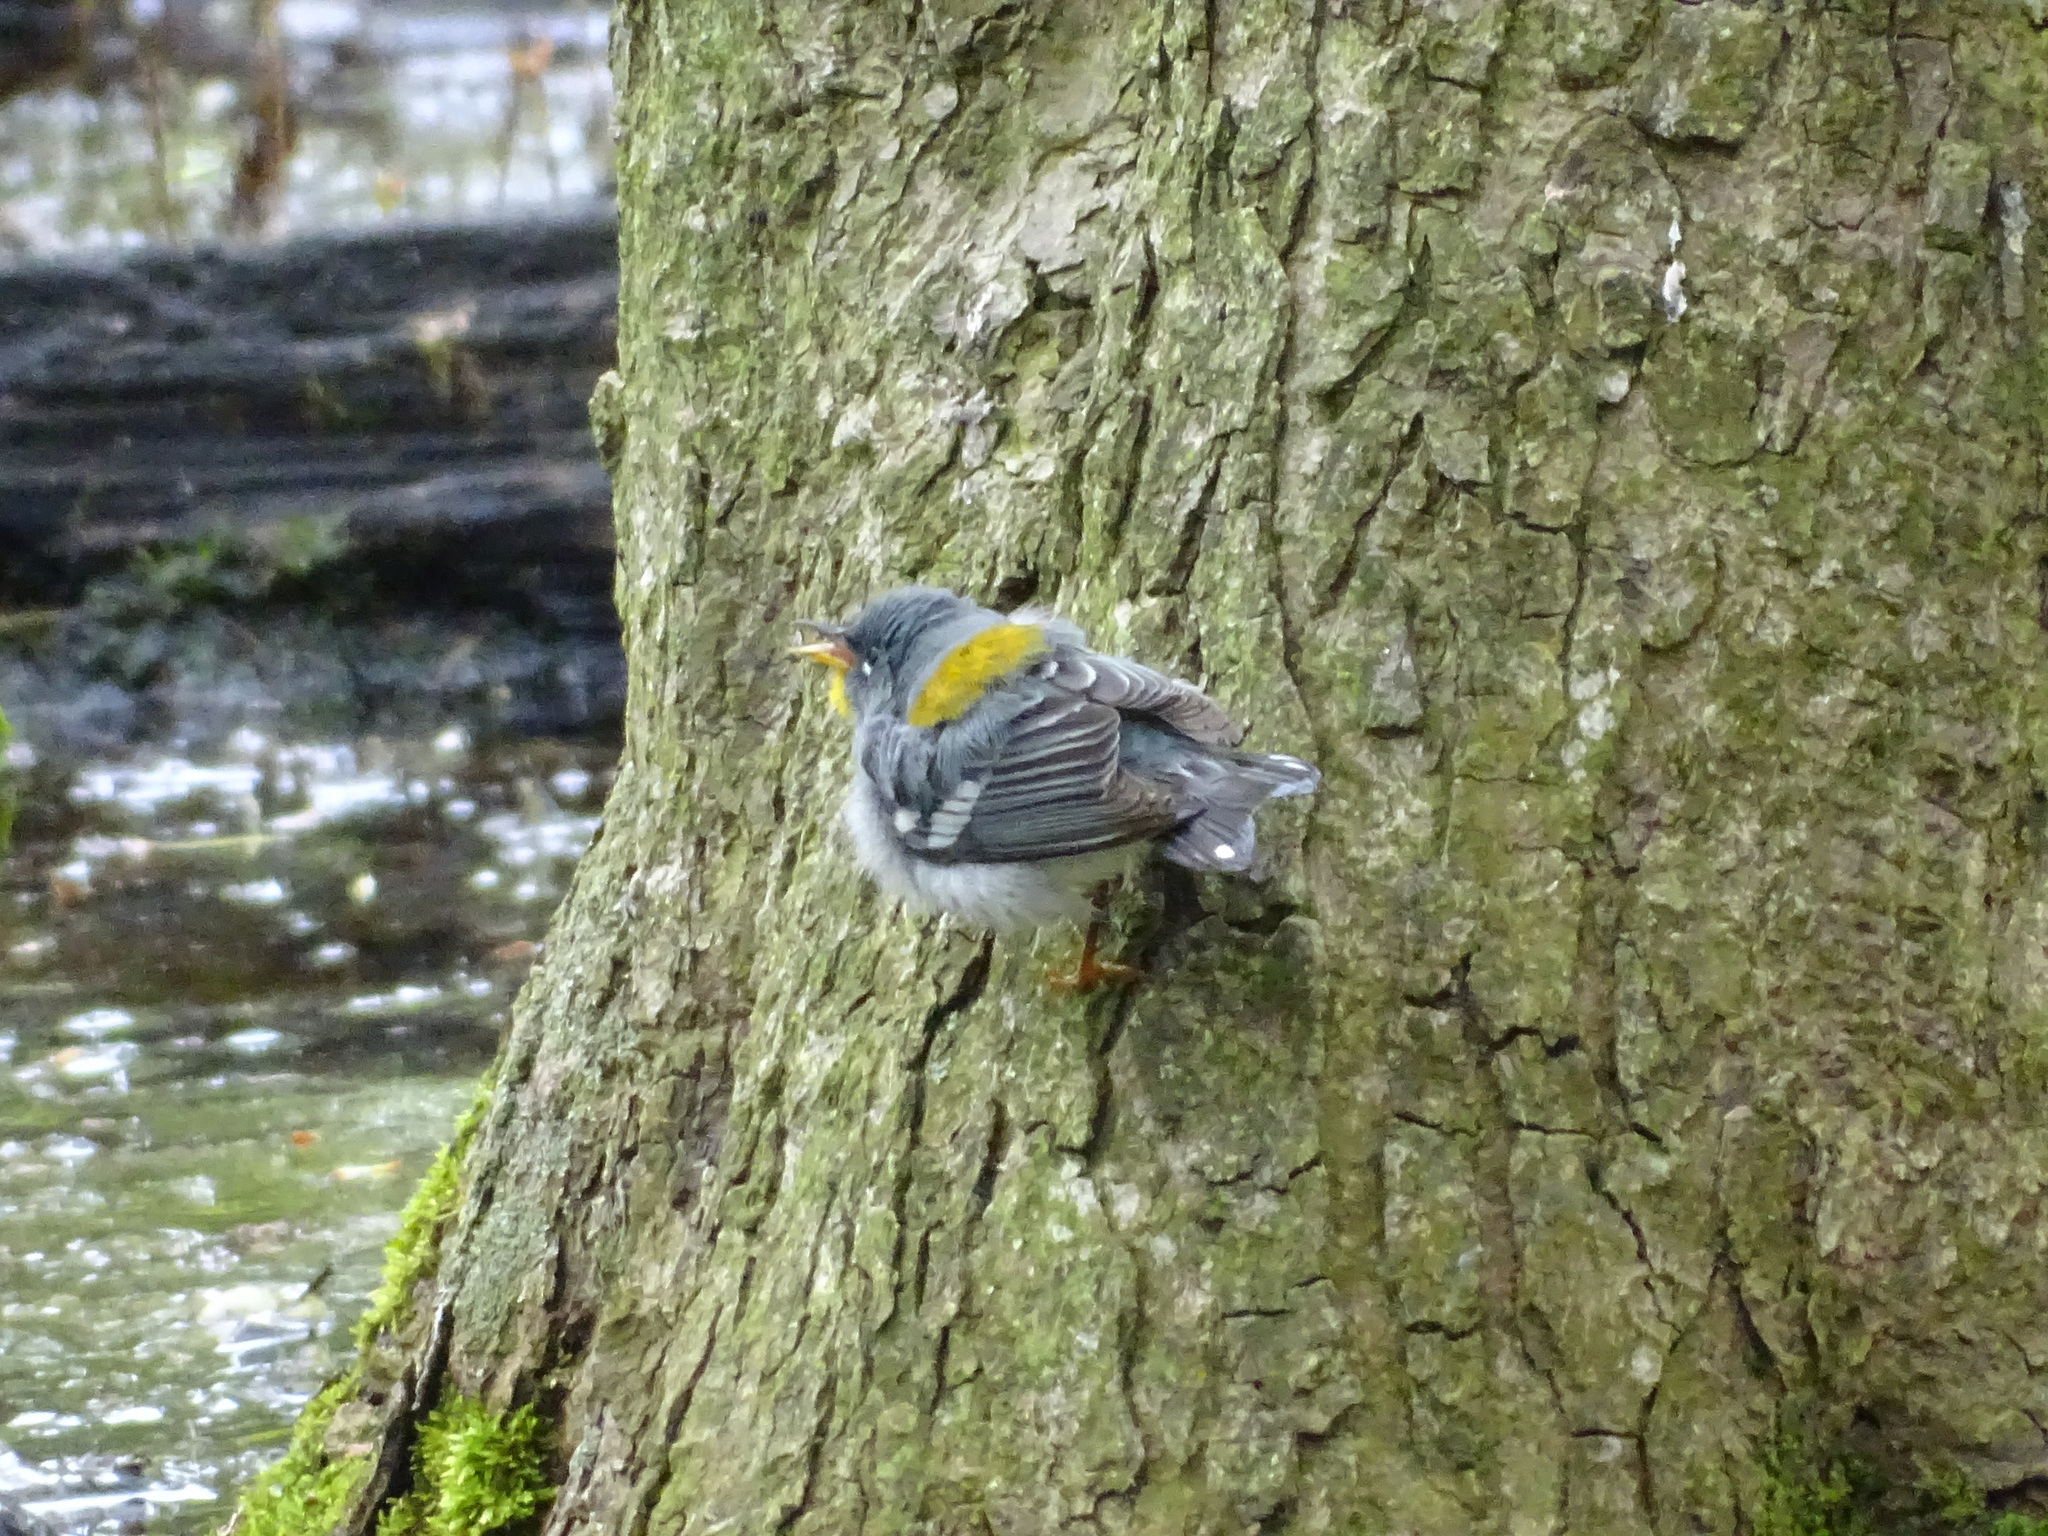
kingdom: Animalia
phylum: Chordata
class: Aves
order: Passeriformes
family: Parulidae
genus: Setophaga
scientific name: Setophaga americana
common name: Northern parula
